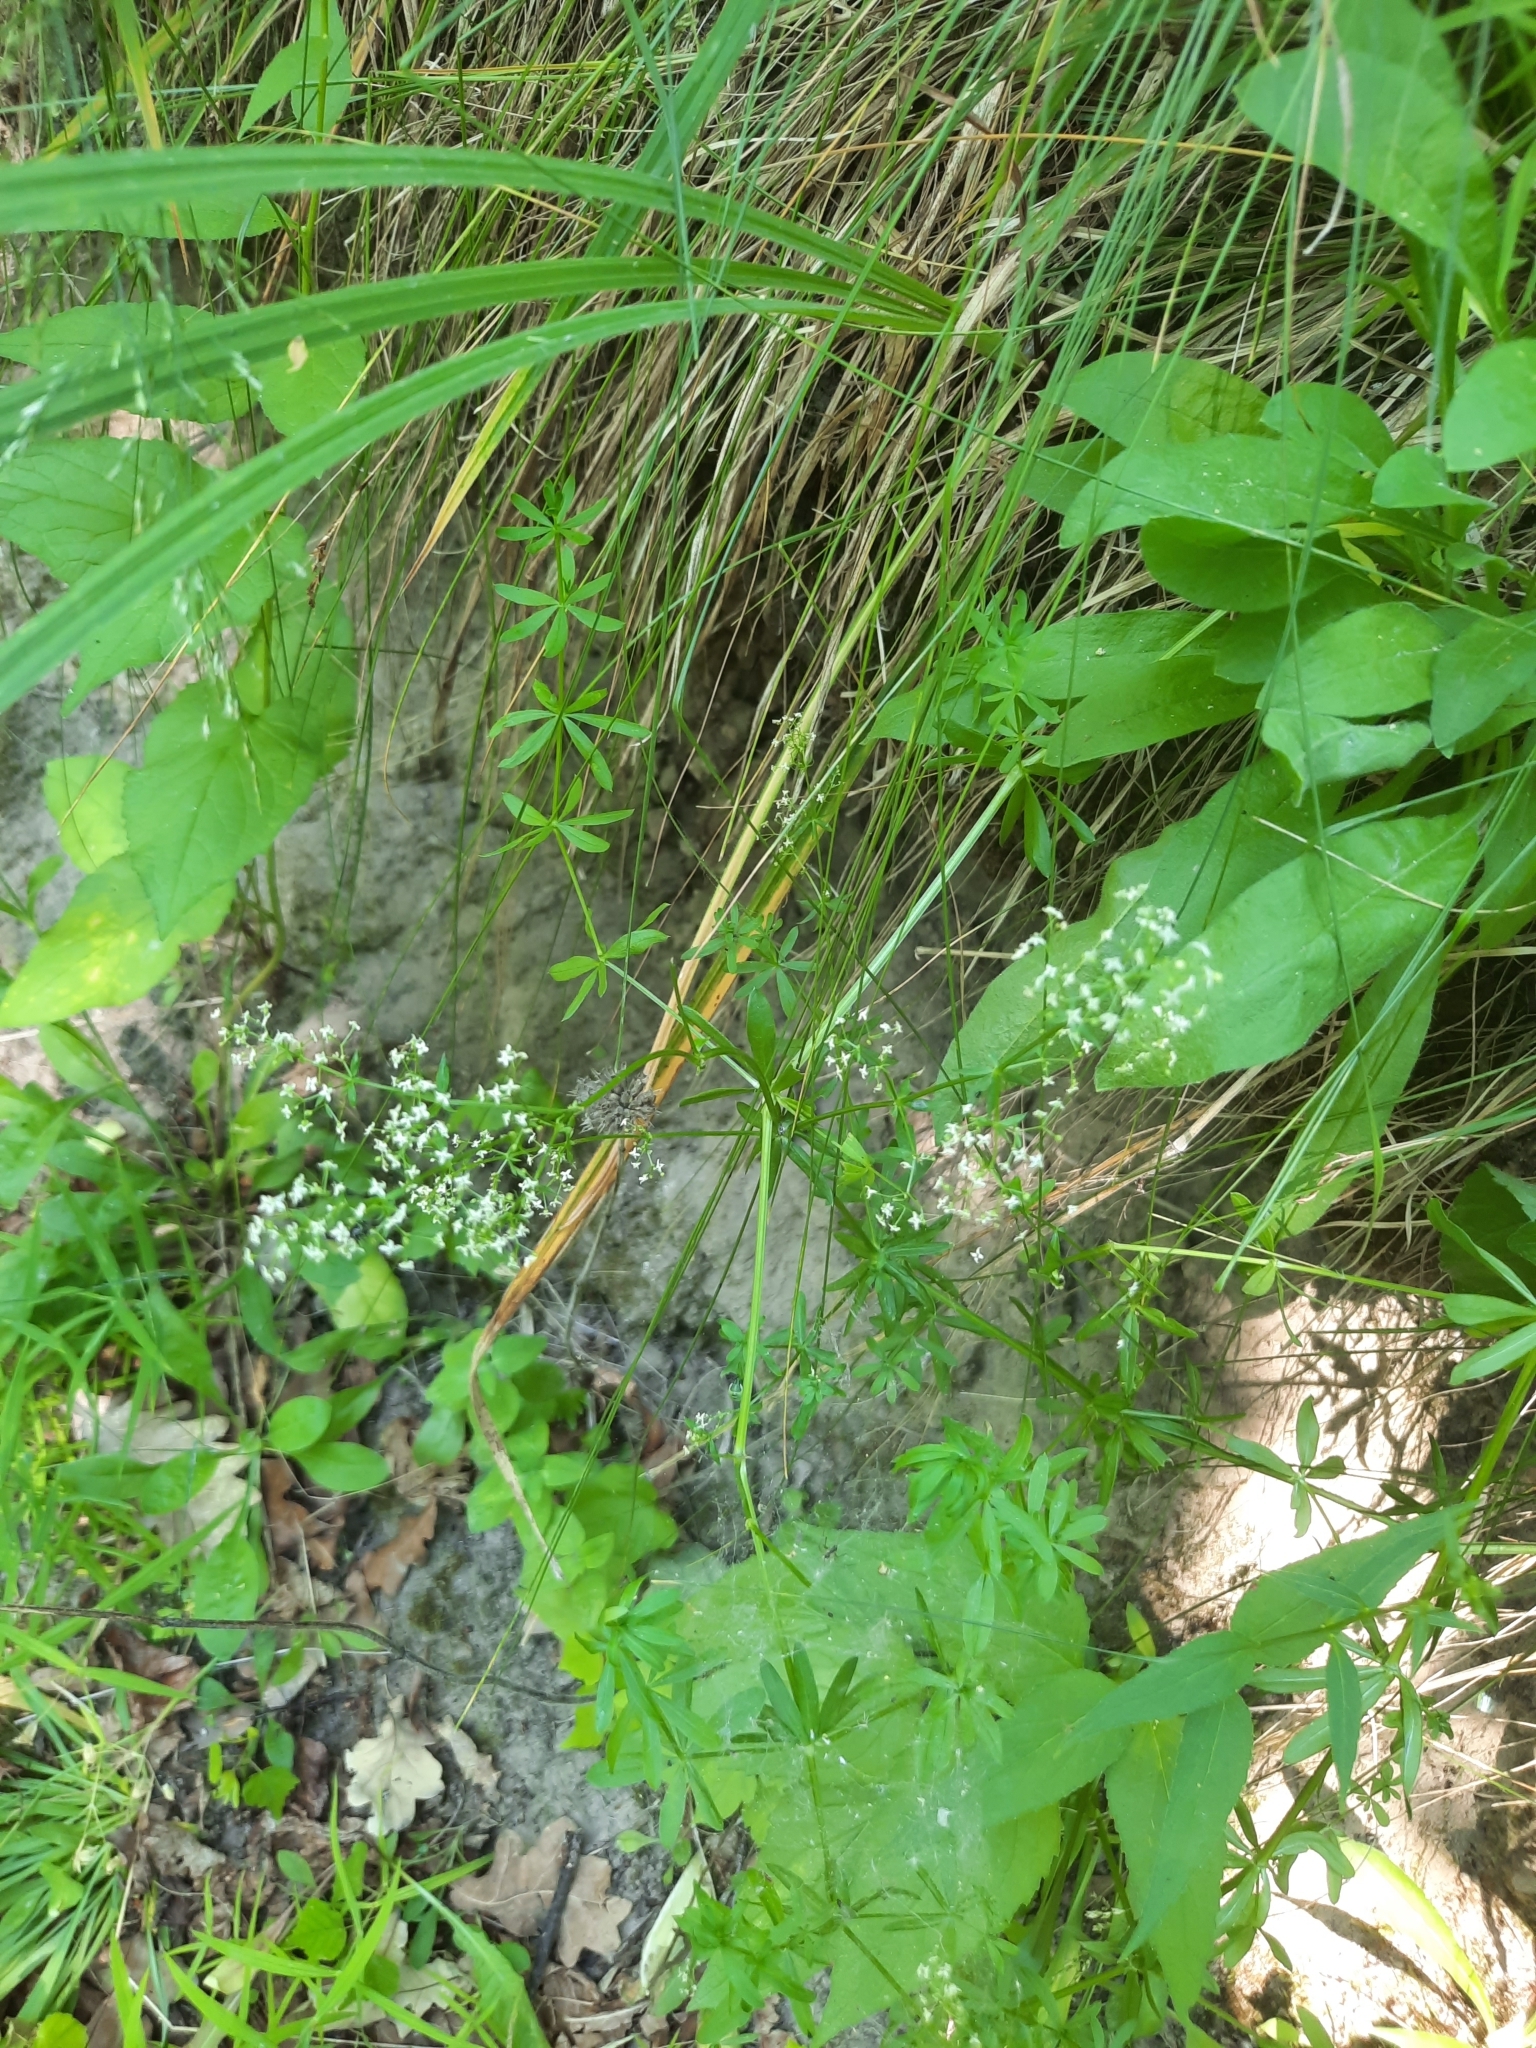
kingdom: Plantae
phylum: Tracheophyta
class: Magnoliopsida
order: Gentianales
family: Rubiaceae
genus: Galium
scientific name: Galium mollugo
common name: Hedge bedstraw
